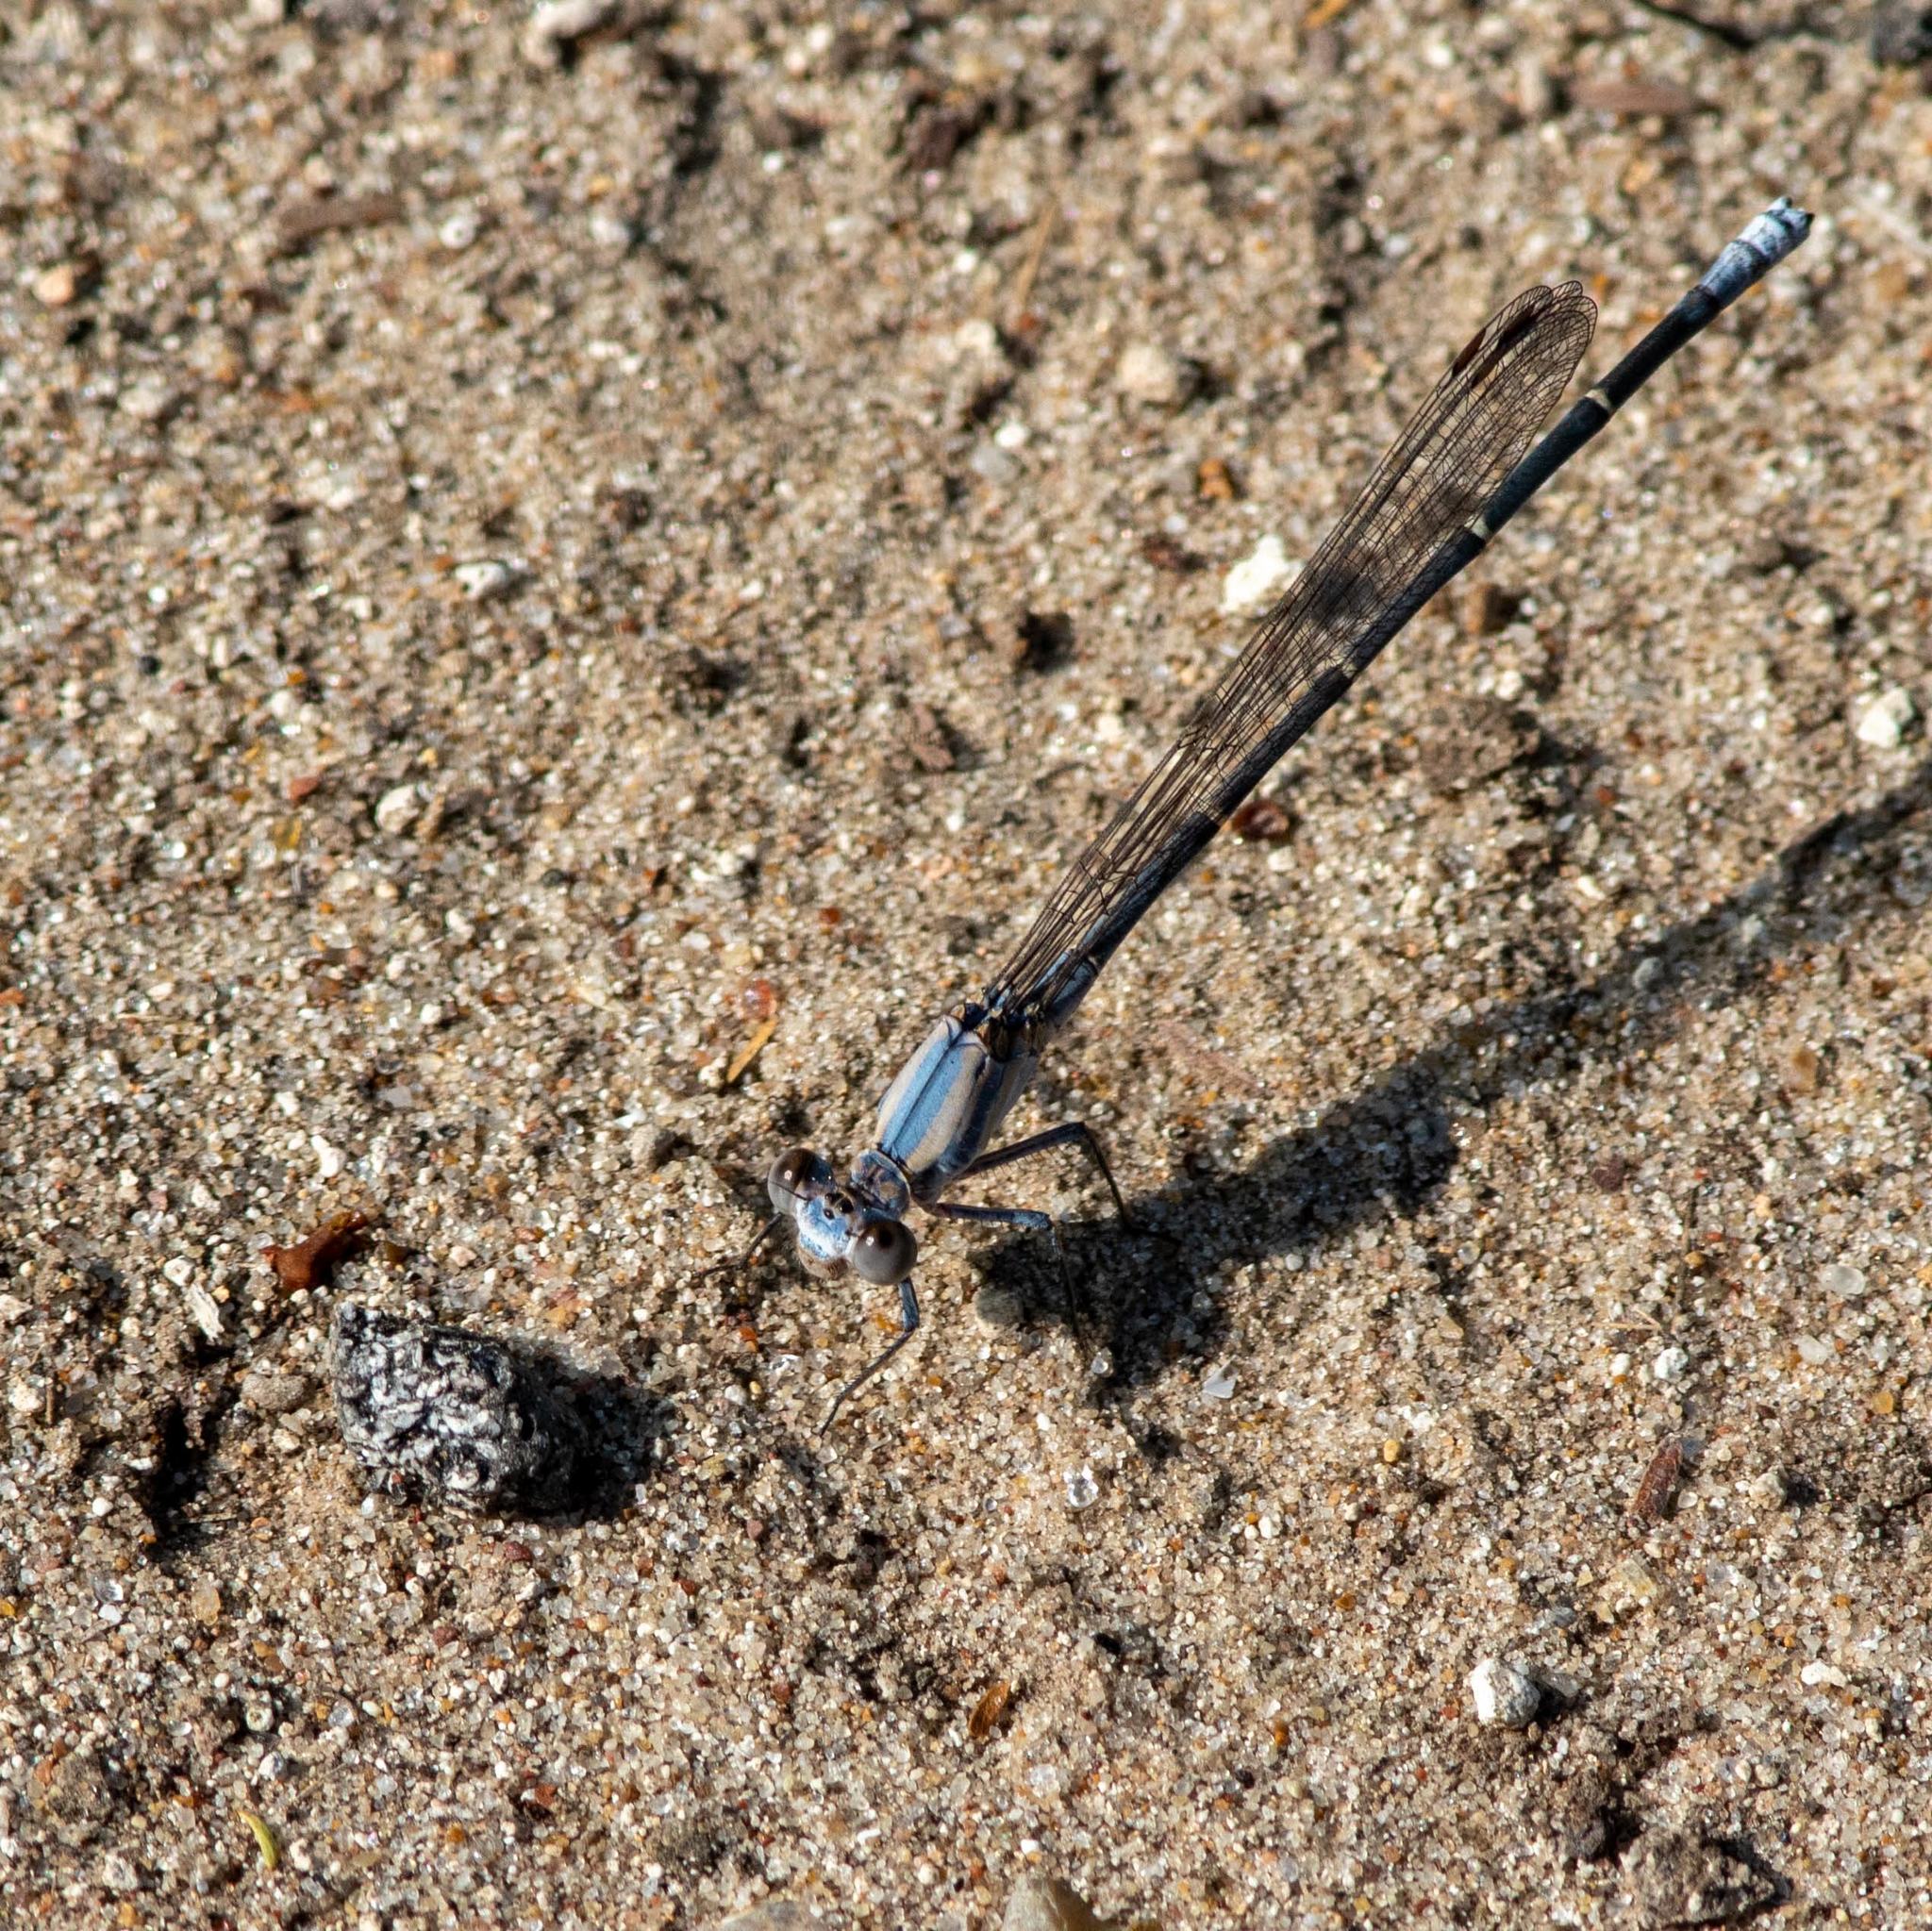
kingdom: Animalia
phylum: Arthropoda
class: Insecta
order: Odonata
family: Coenagrionidae
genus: Argia
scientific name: Argia moesta
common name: Powdered dancer
